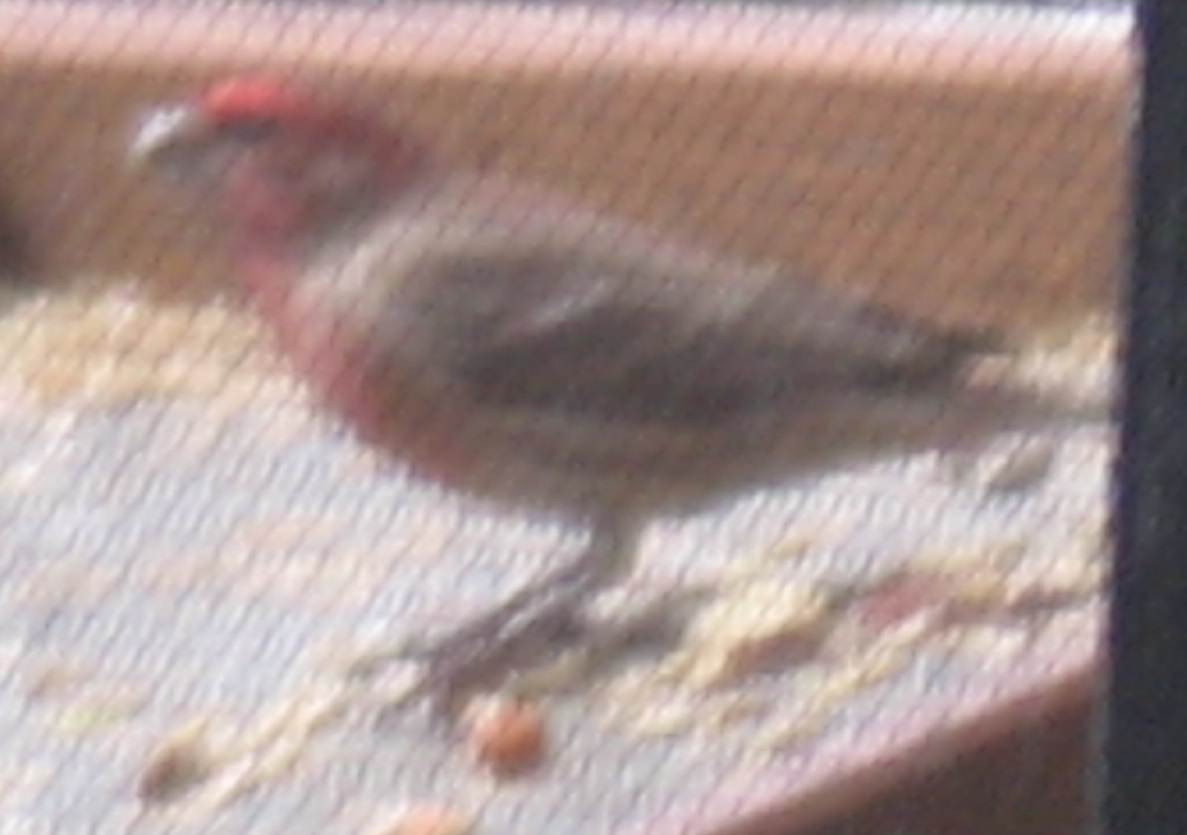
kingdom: Animalia
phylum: Chordata
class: Aves
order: Passeriformes
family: Fringillidae
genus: Haemorhous
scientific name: Haemorhous mexicanus
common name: House finch
